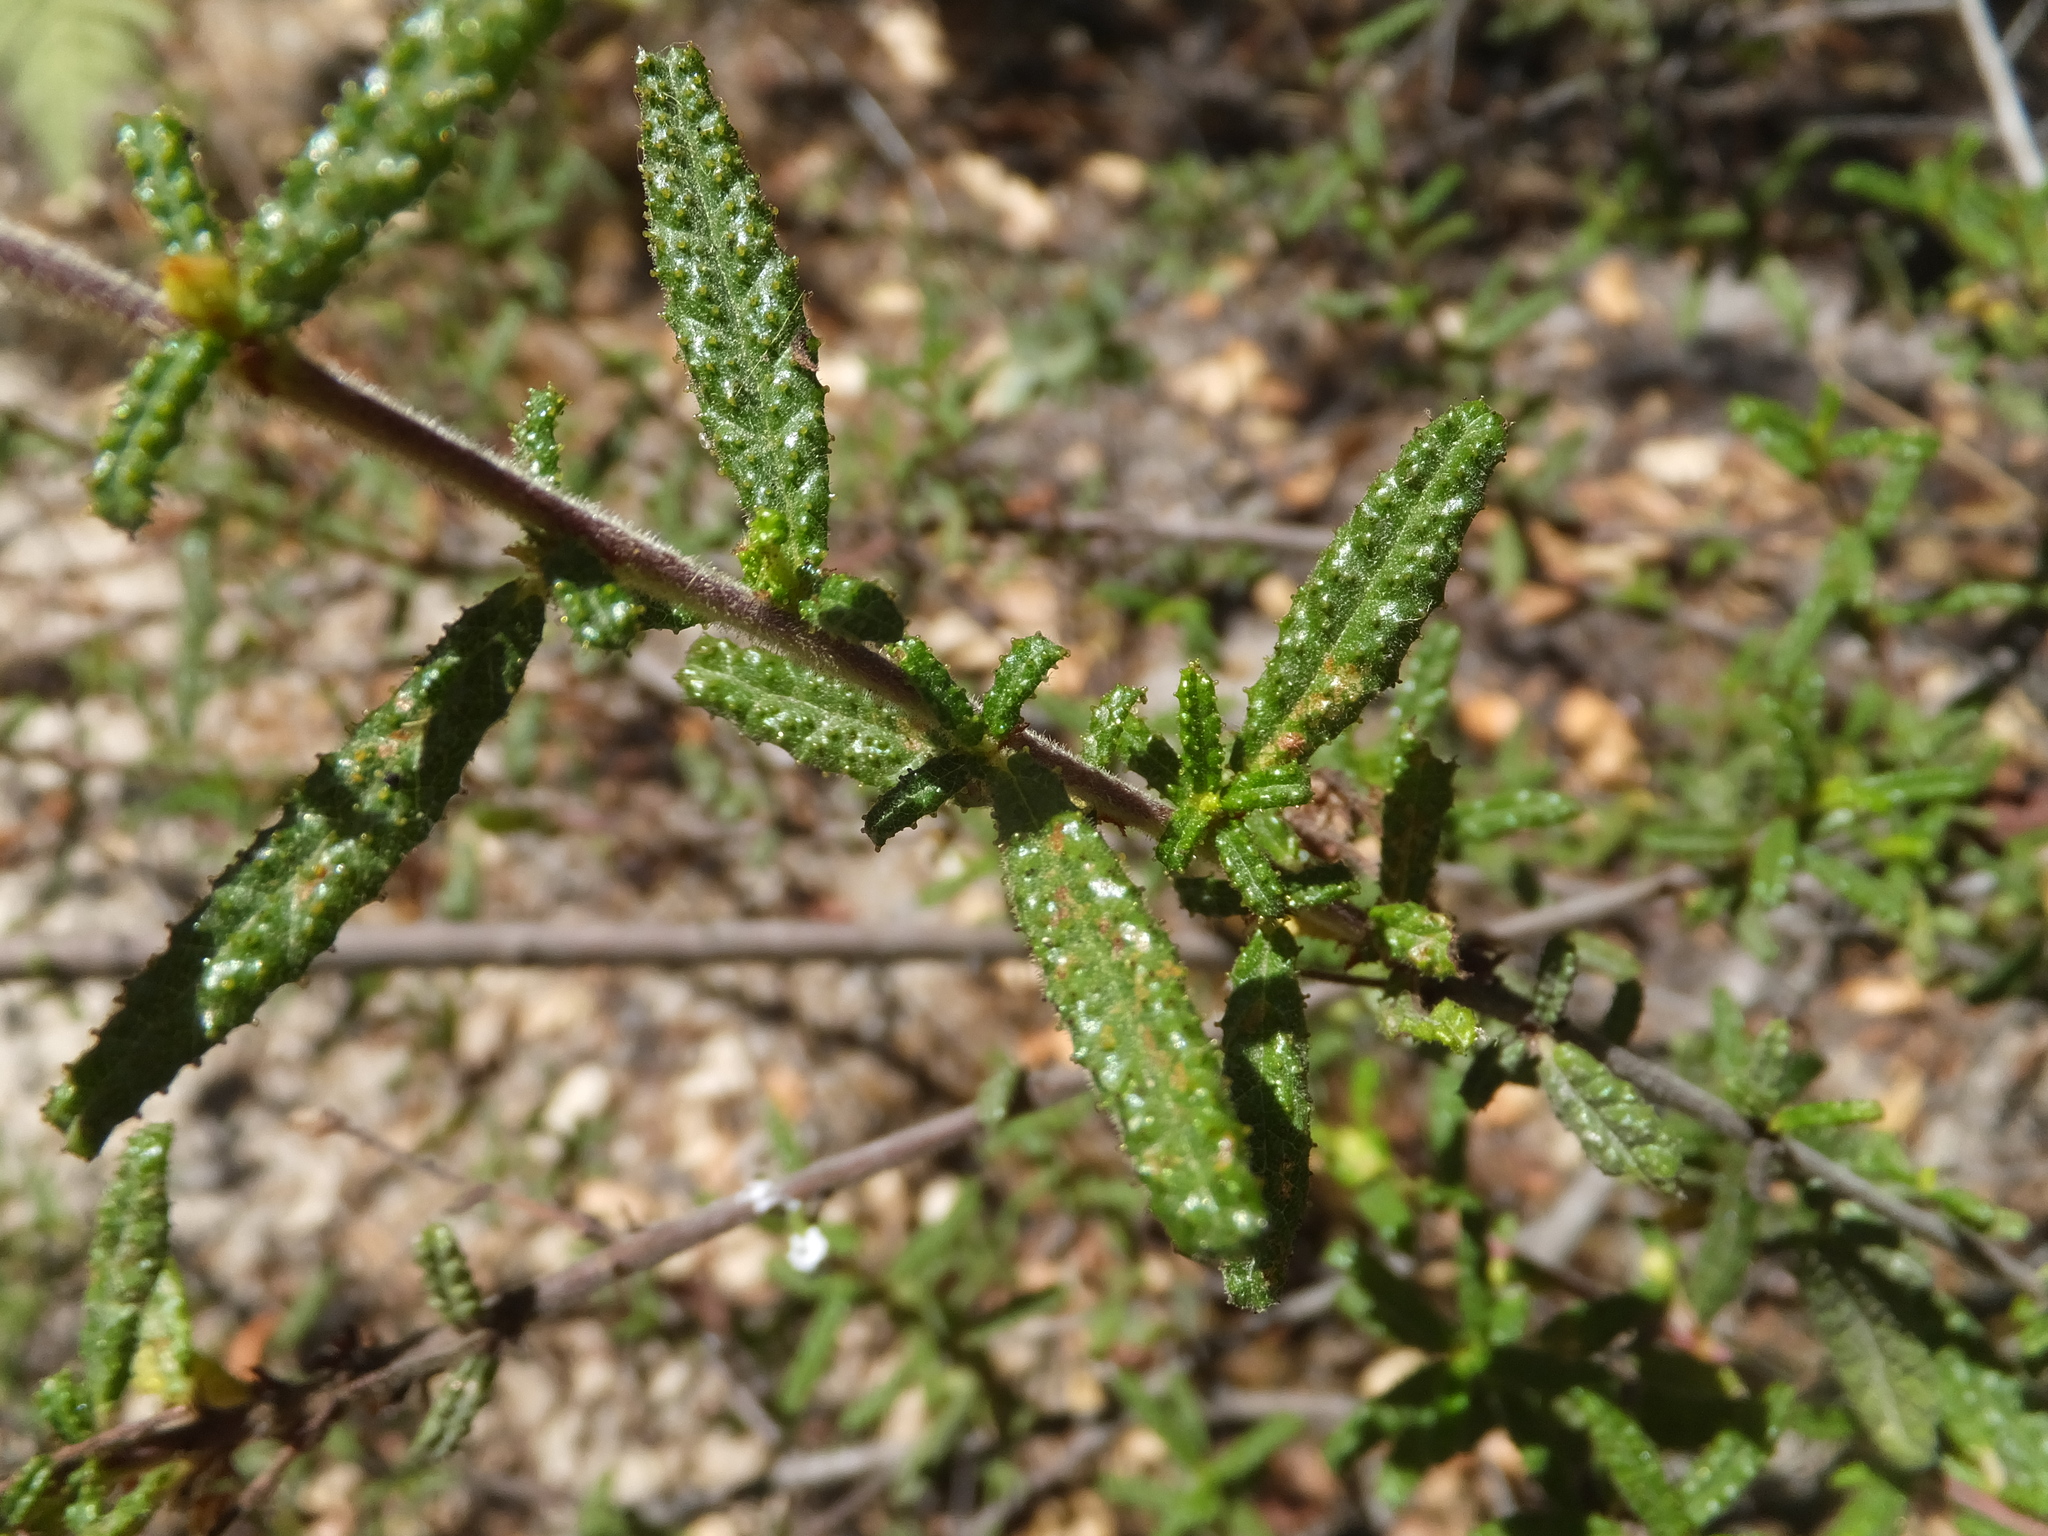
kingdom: Plantae
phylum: Tracheophyta
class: Magnoliopsida
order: Rosales
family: Rhamnaceae
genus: Ceanothus
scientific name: Ceanothus papillosus
